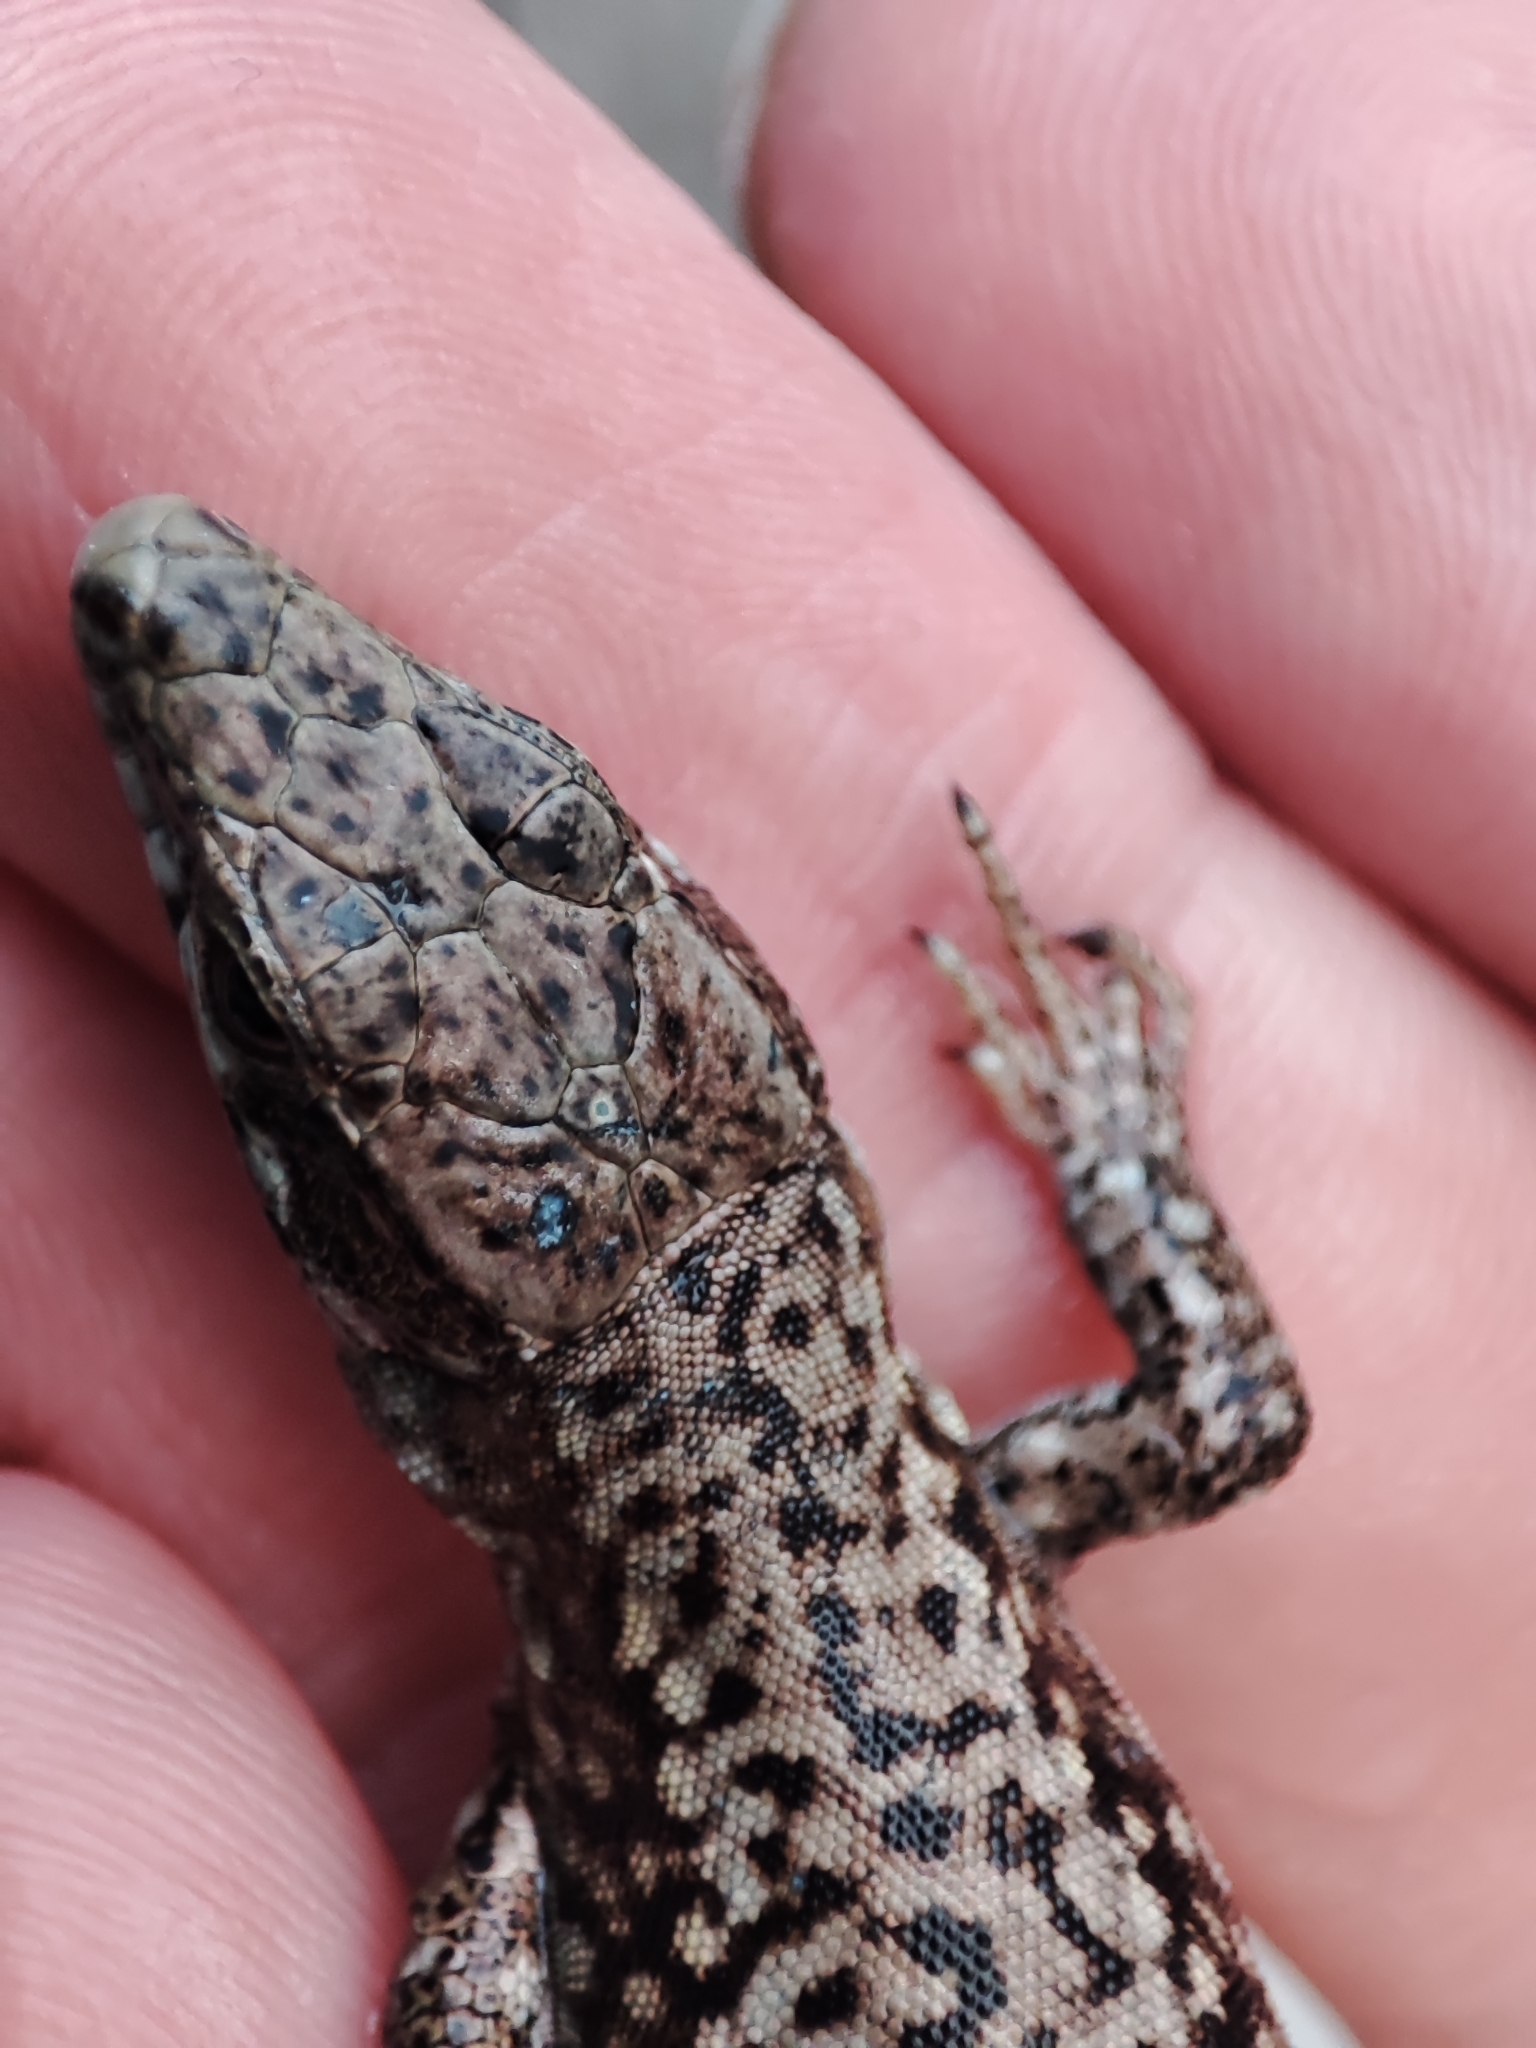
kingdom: Animalia
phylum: Chordata
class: Squamata
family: Lacertidae
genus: Podarcis
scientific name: Podarcis muralis
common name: Common wall lizard
